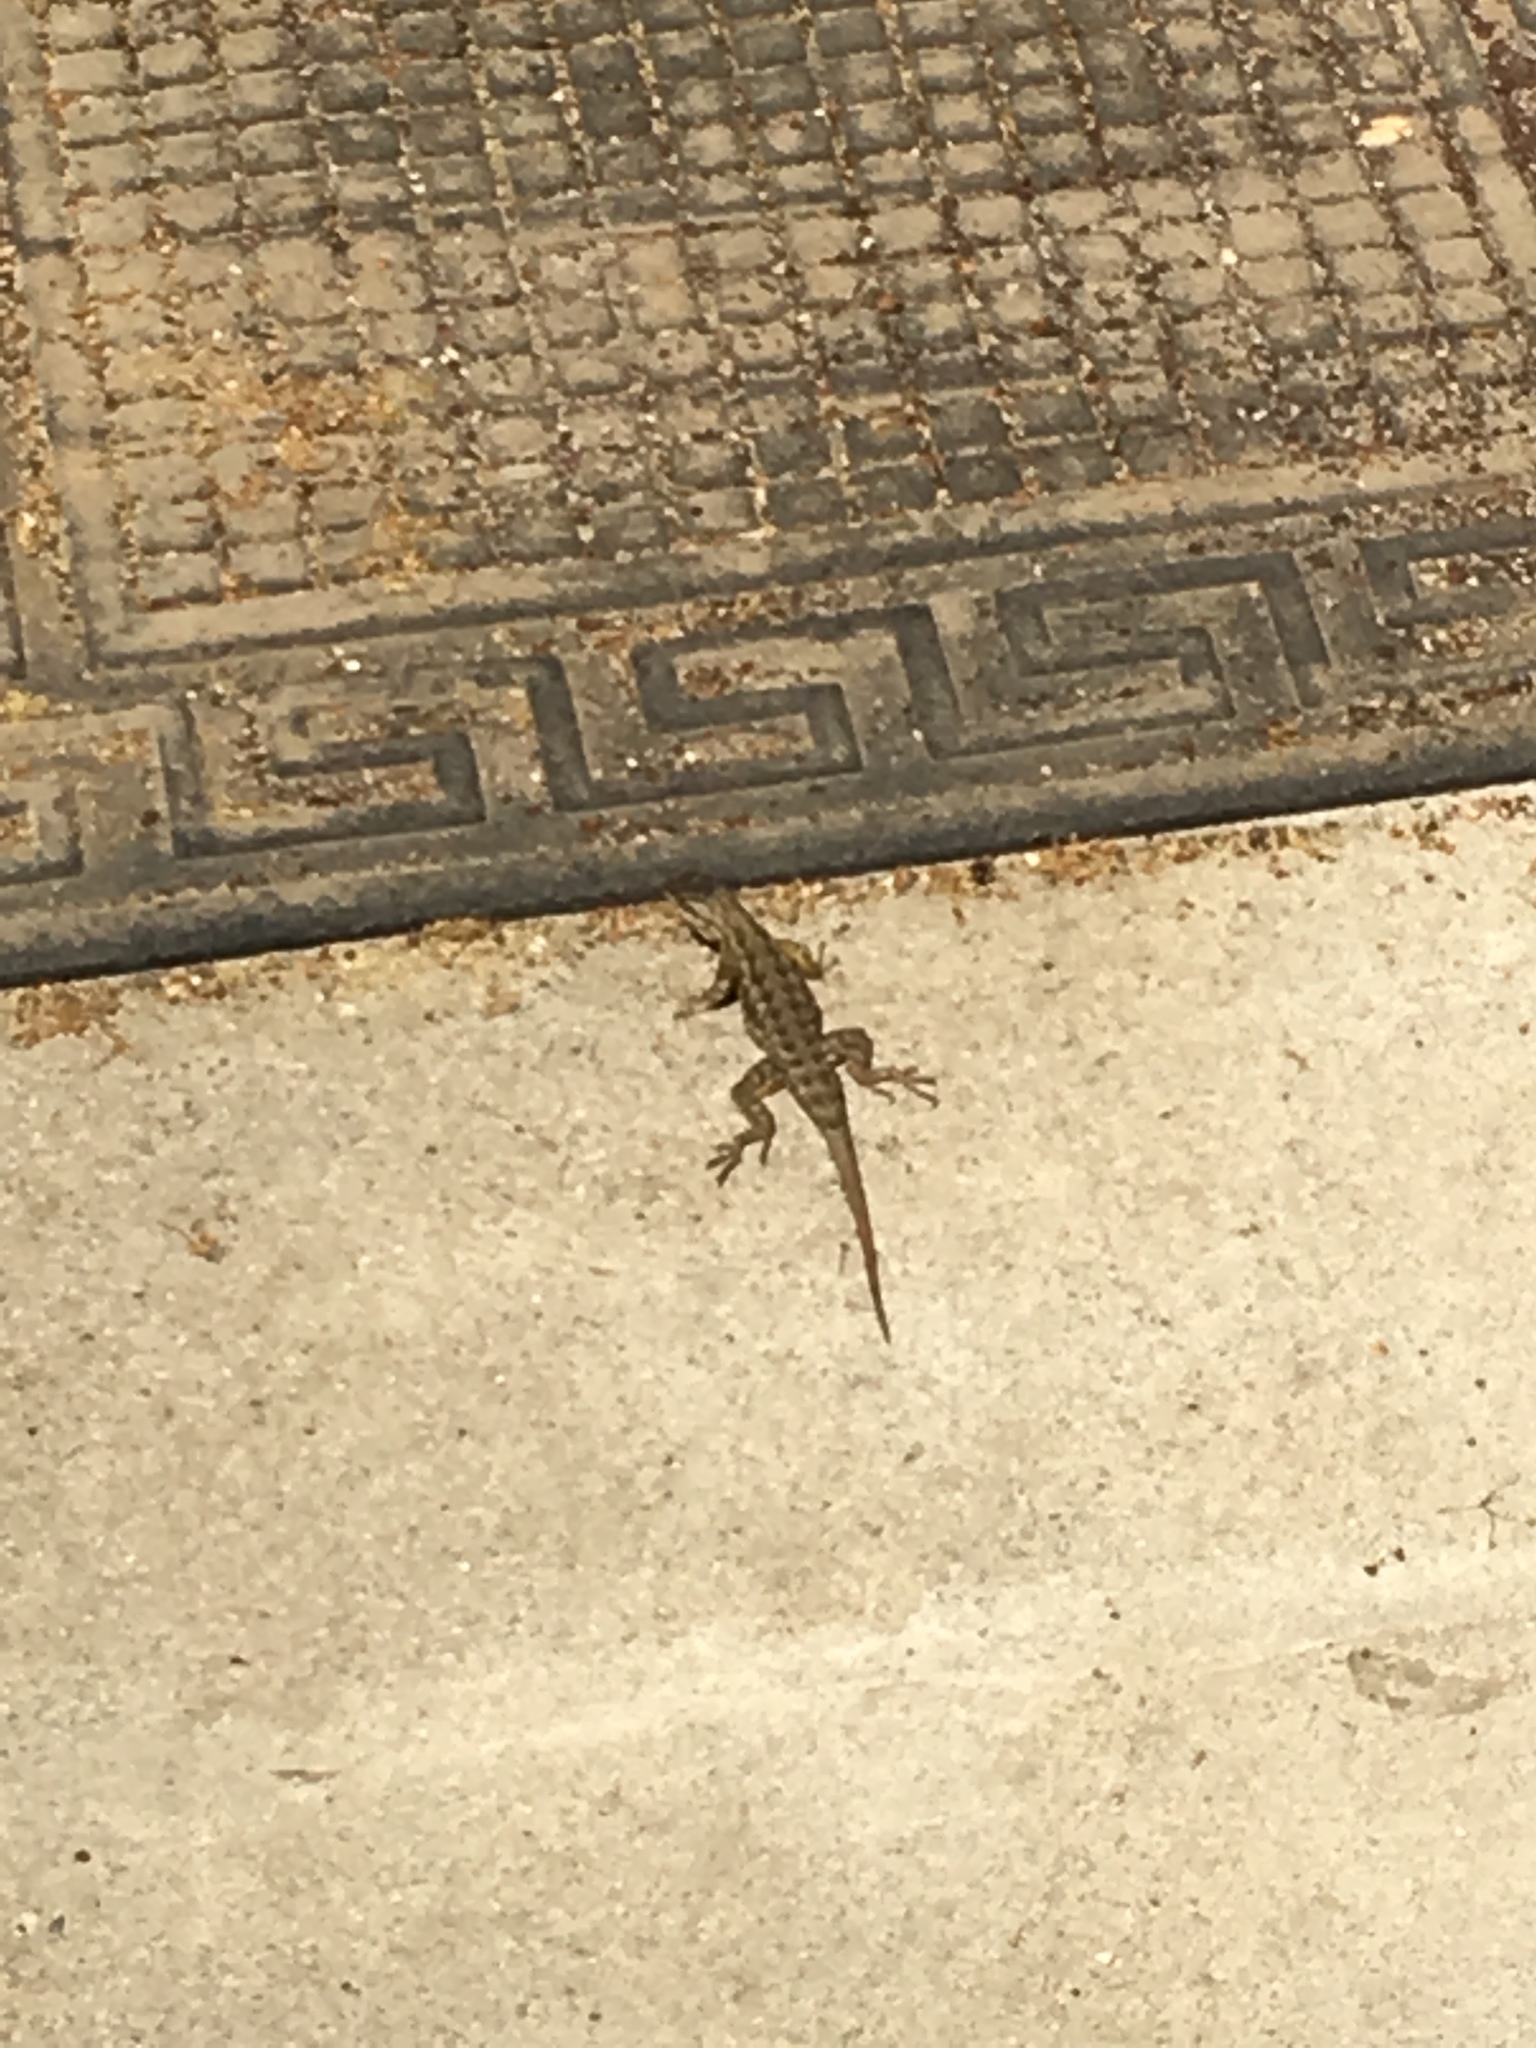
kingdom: Animalia
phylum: Chordata
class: Squamata
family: Phrynosomatidae
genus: Sceloporus
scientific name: Sceloporus occidentalis
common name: Western fence lizard
